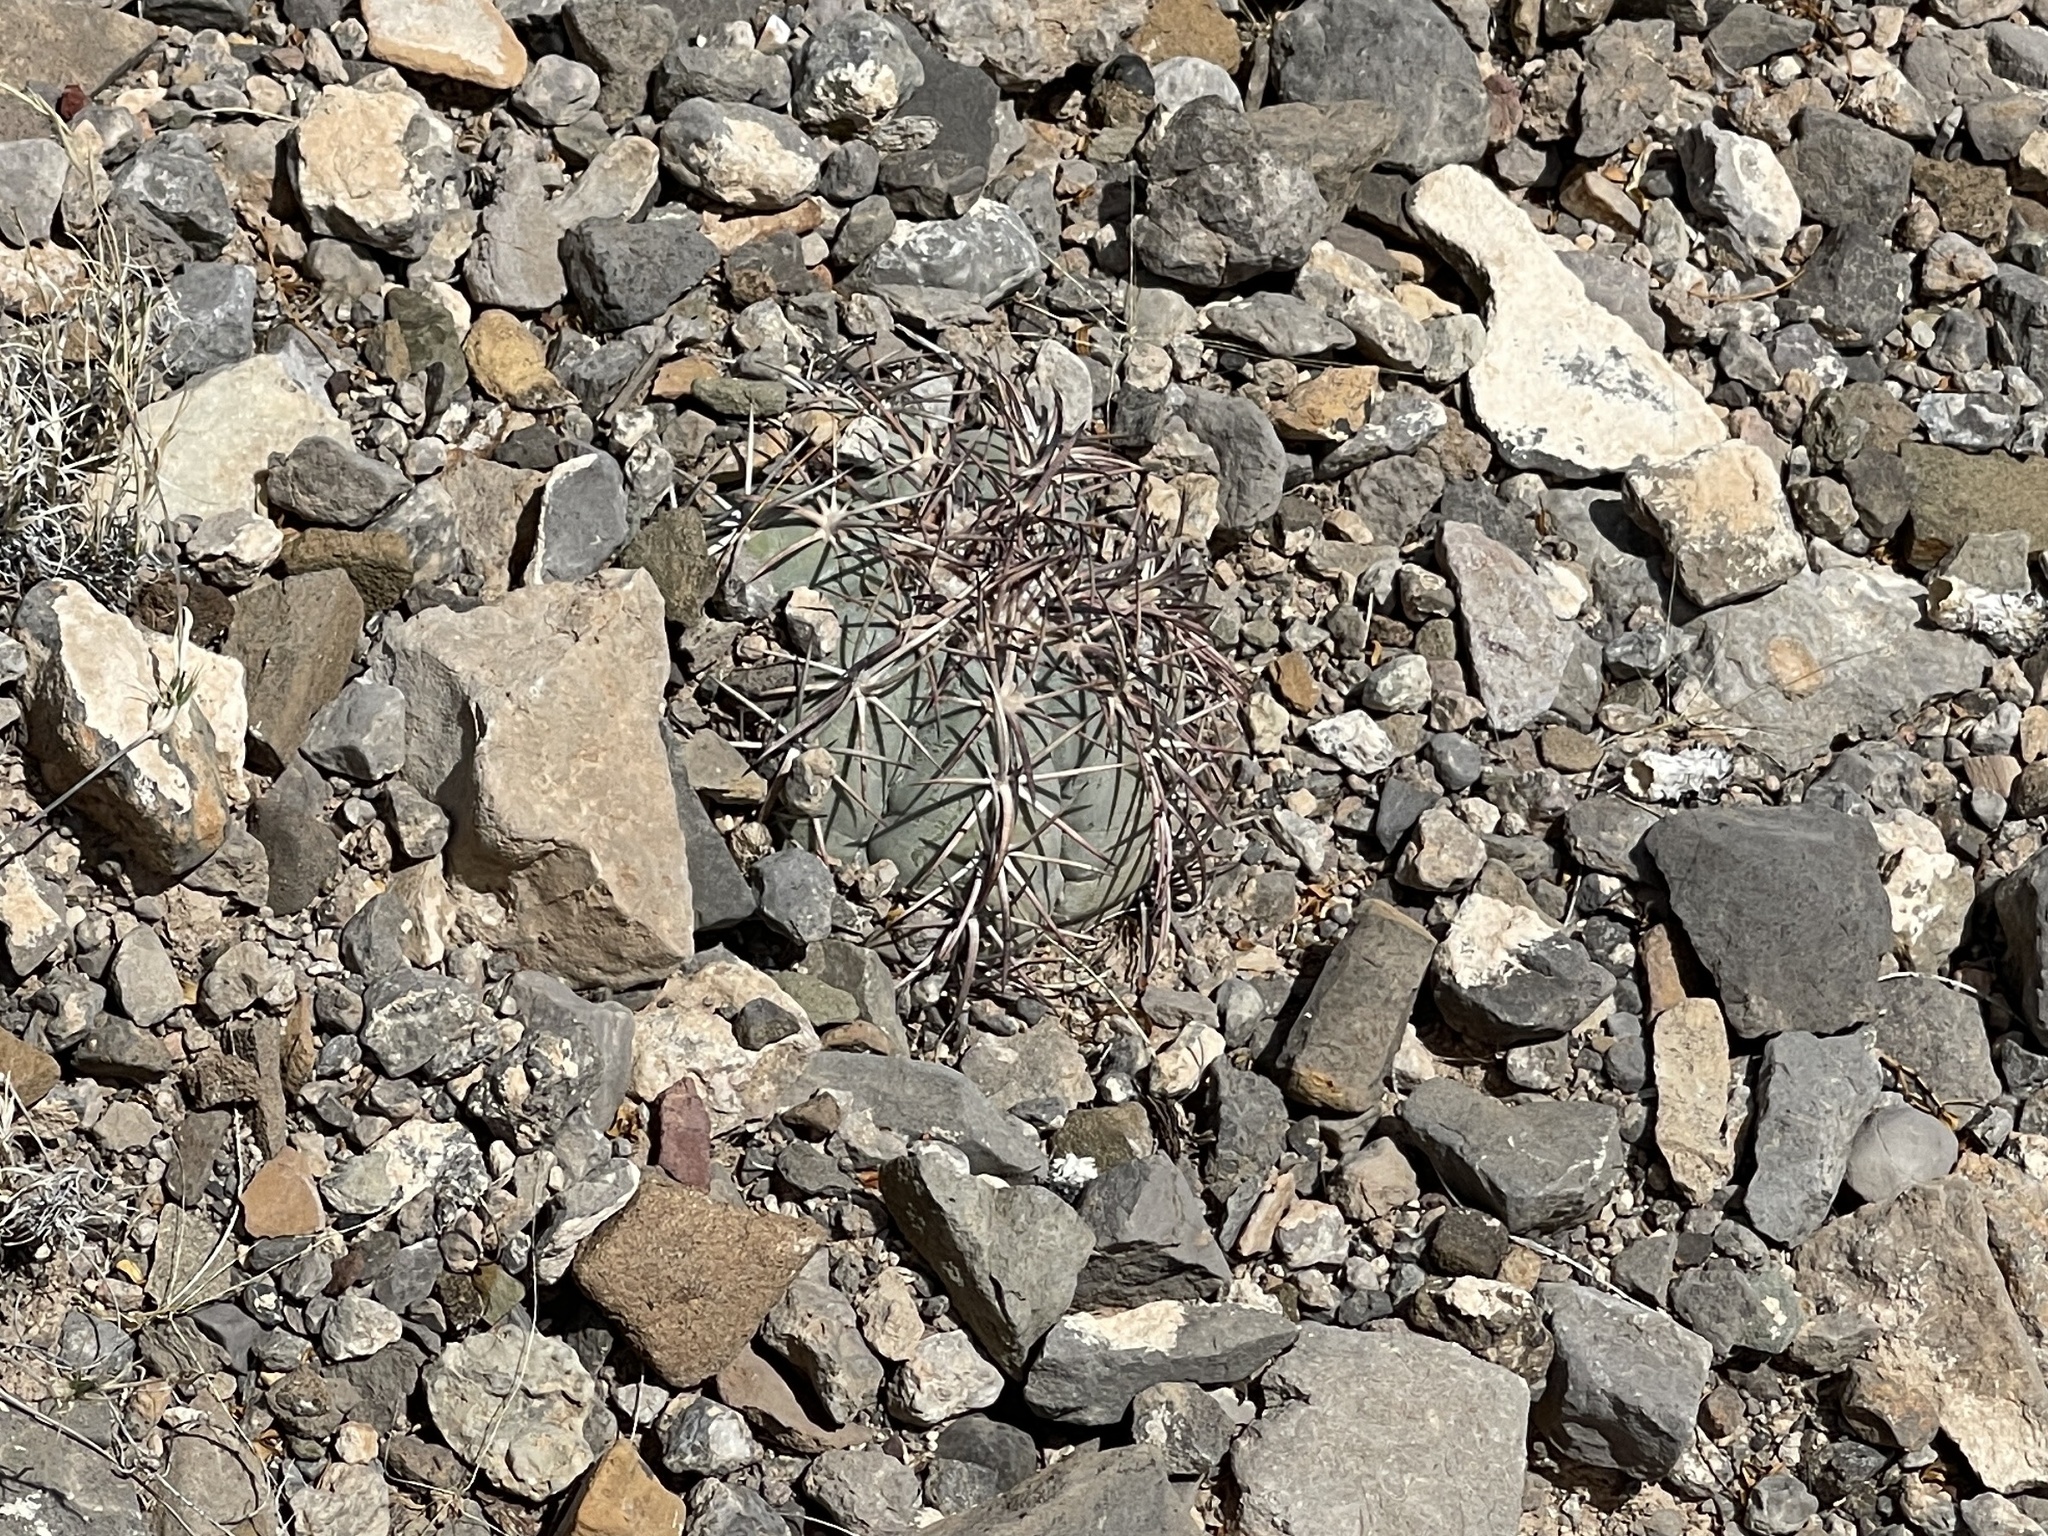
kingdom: Plantae
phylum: Tracheophyta
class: Magnoliopsida
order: Caryophyllales
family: Cactaceae
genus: Echinocactus
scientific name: Echinocactus horizonthalonius
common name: Devilshead
